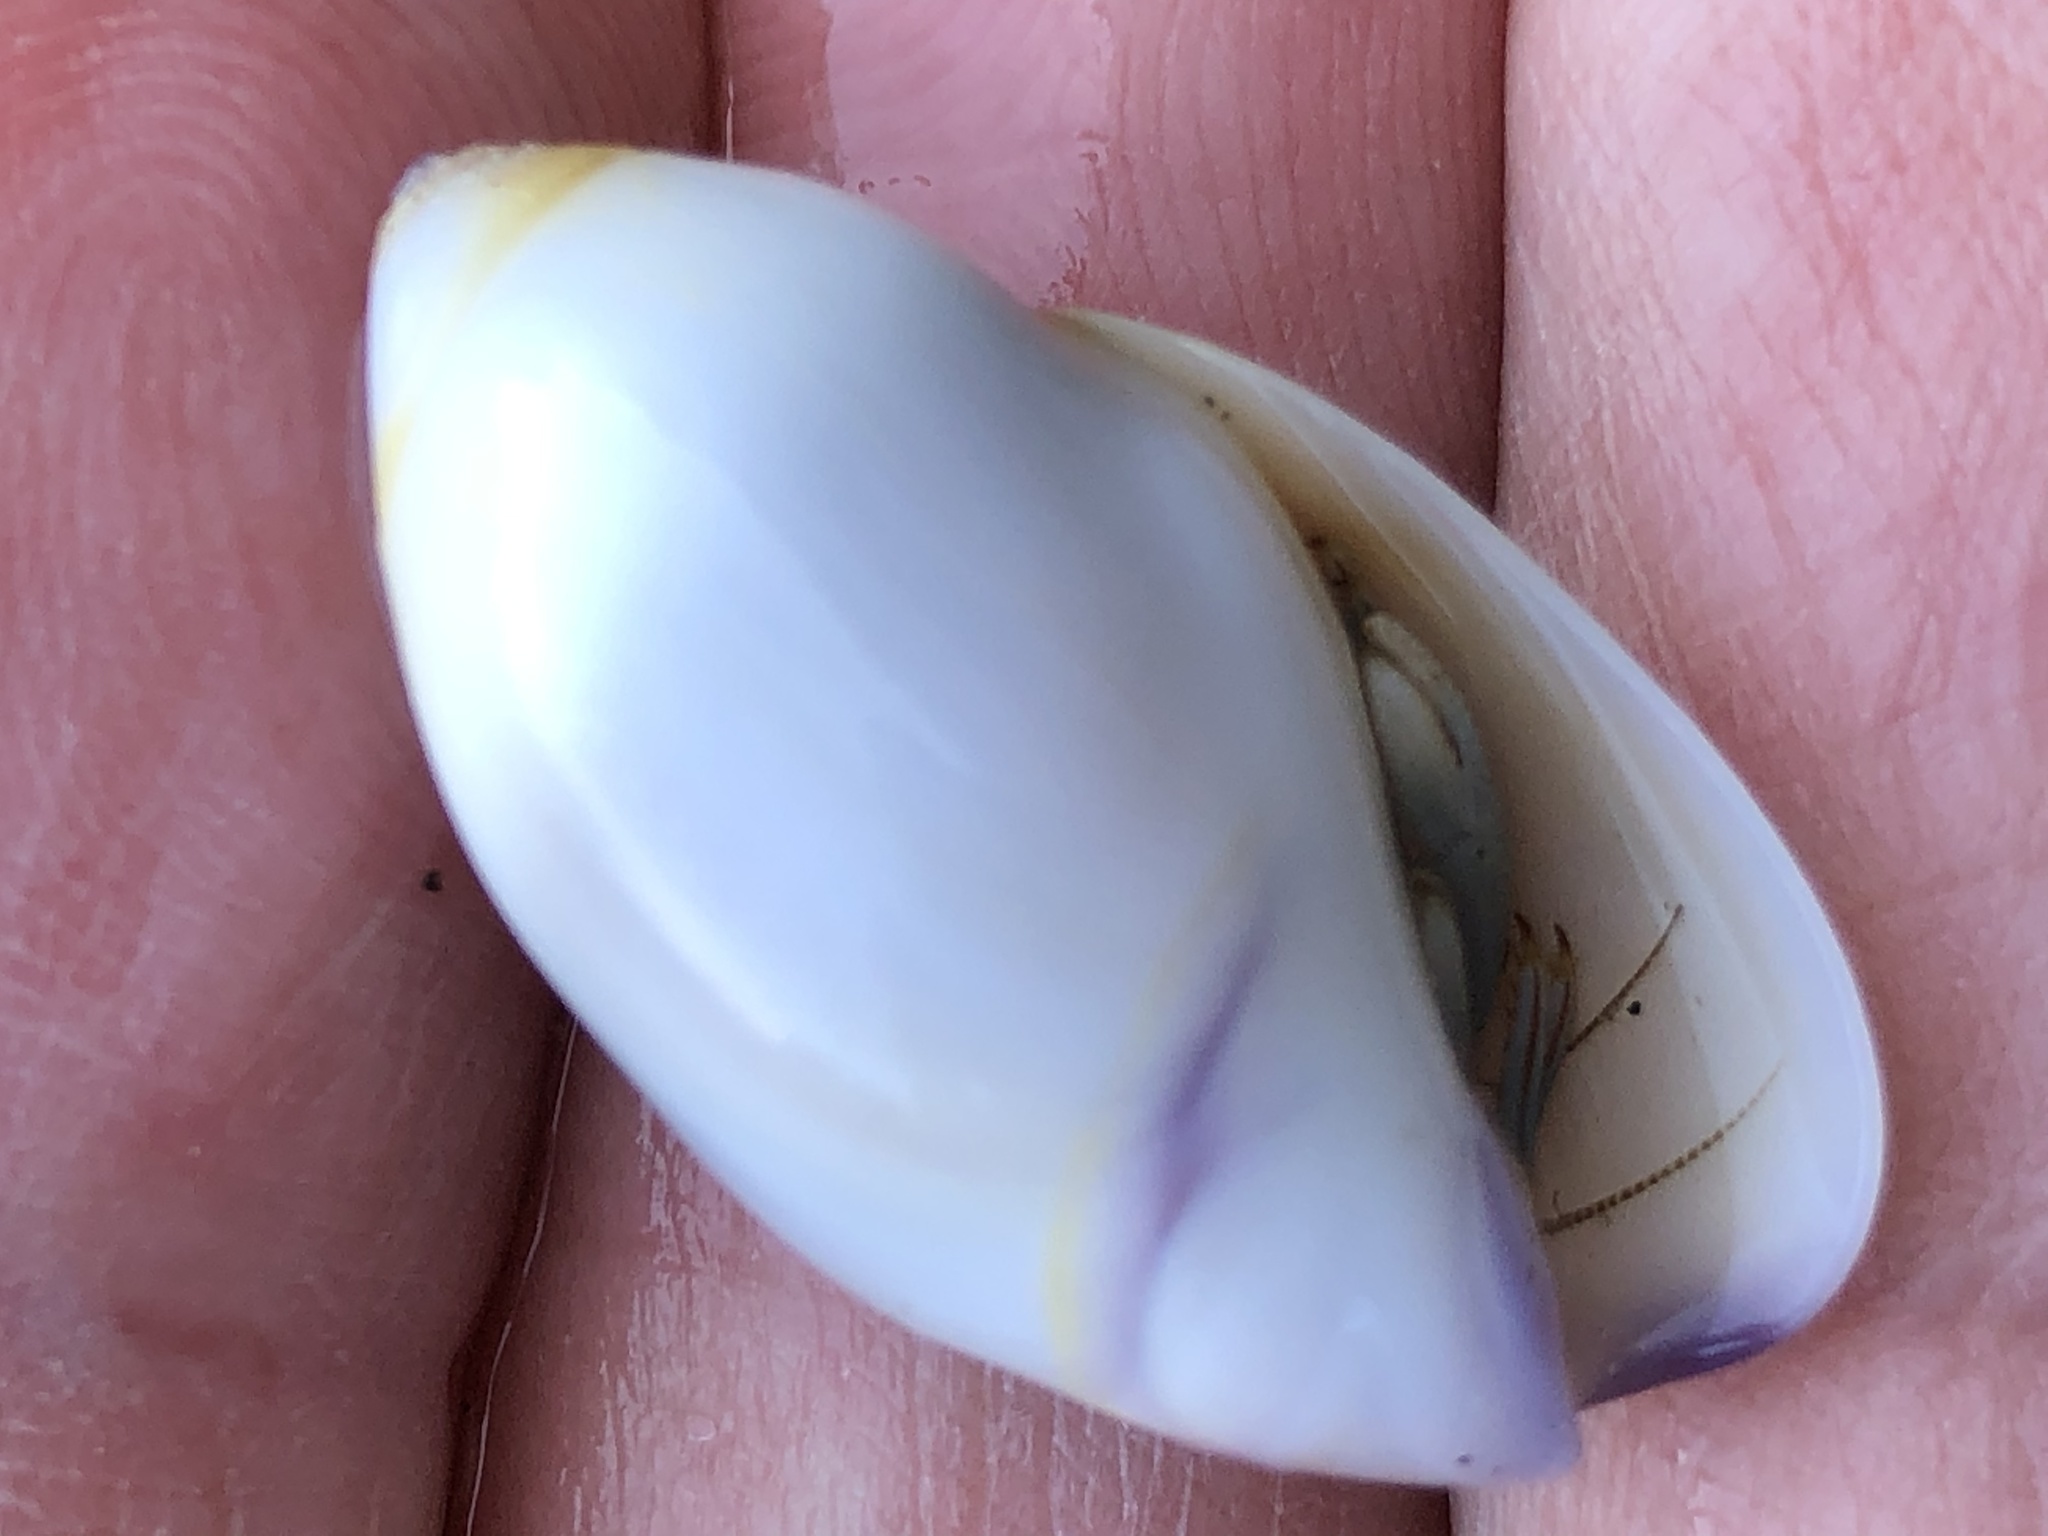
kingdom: Animalia
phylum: Mollusca
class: Gastropoda
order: Neogastropoda
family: Olividae
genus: Callianax
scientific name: Callianax biplicata
